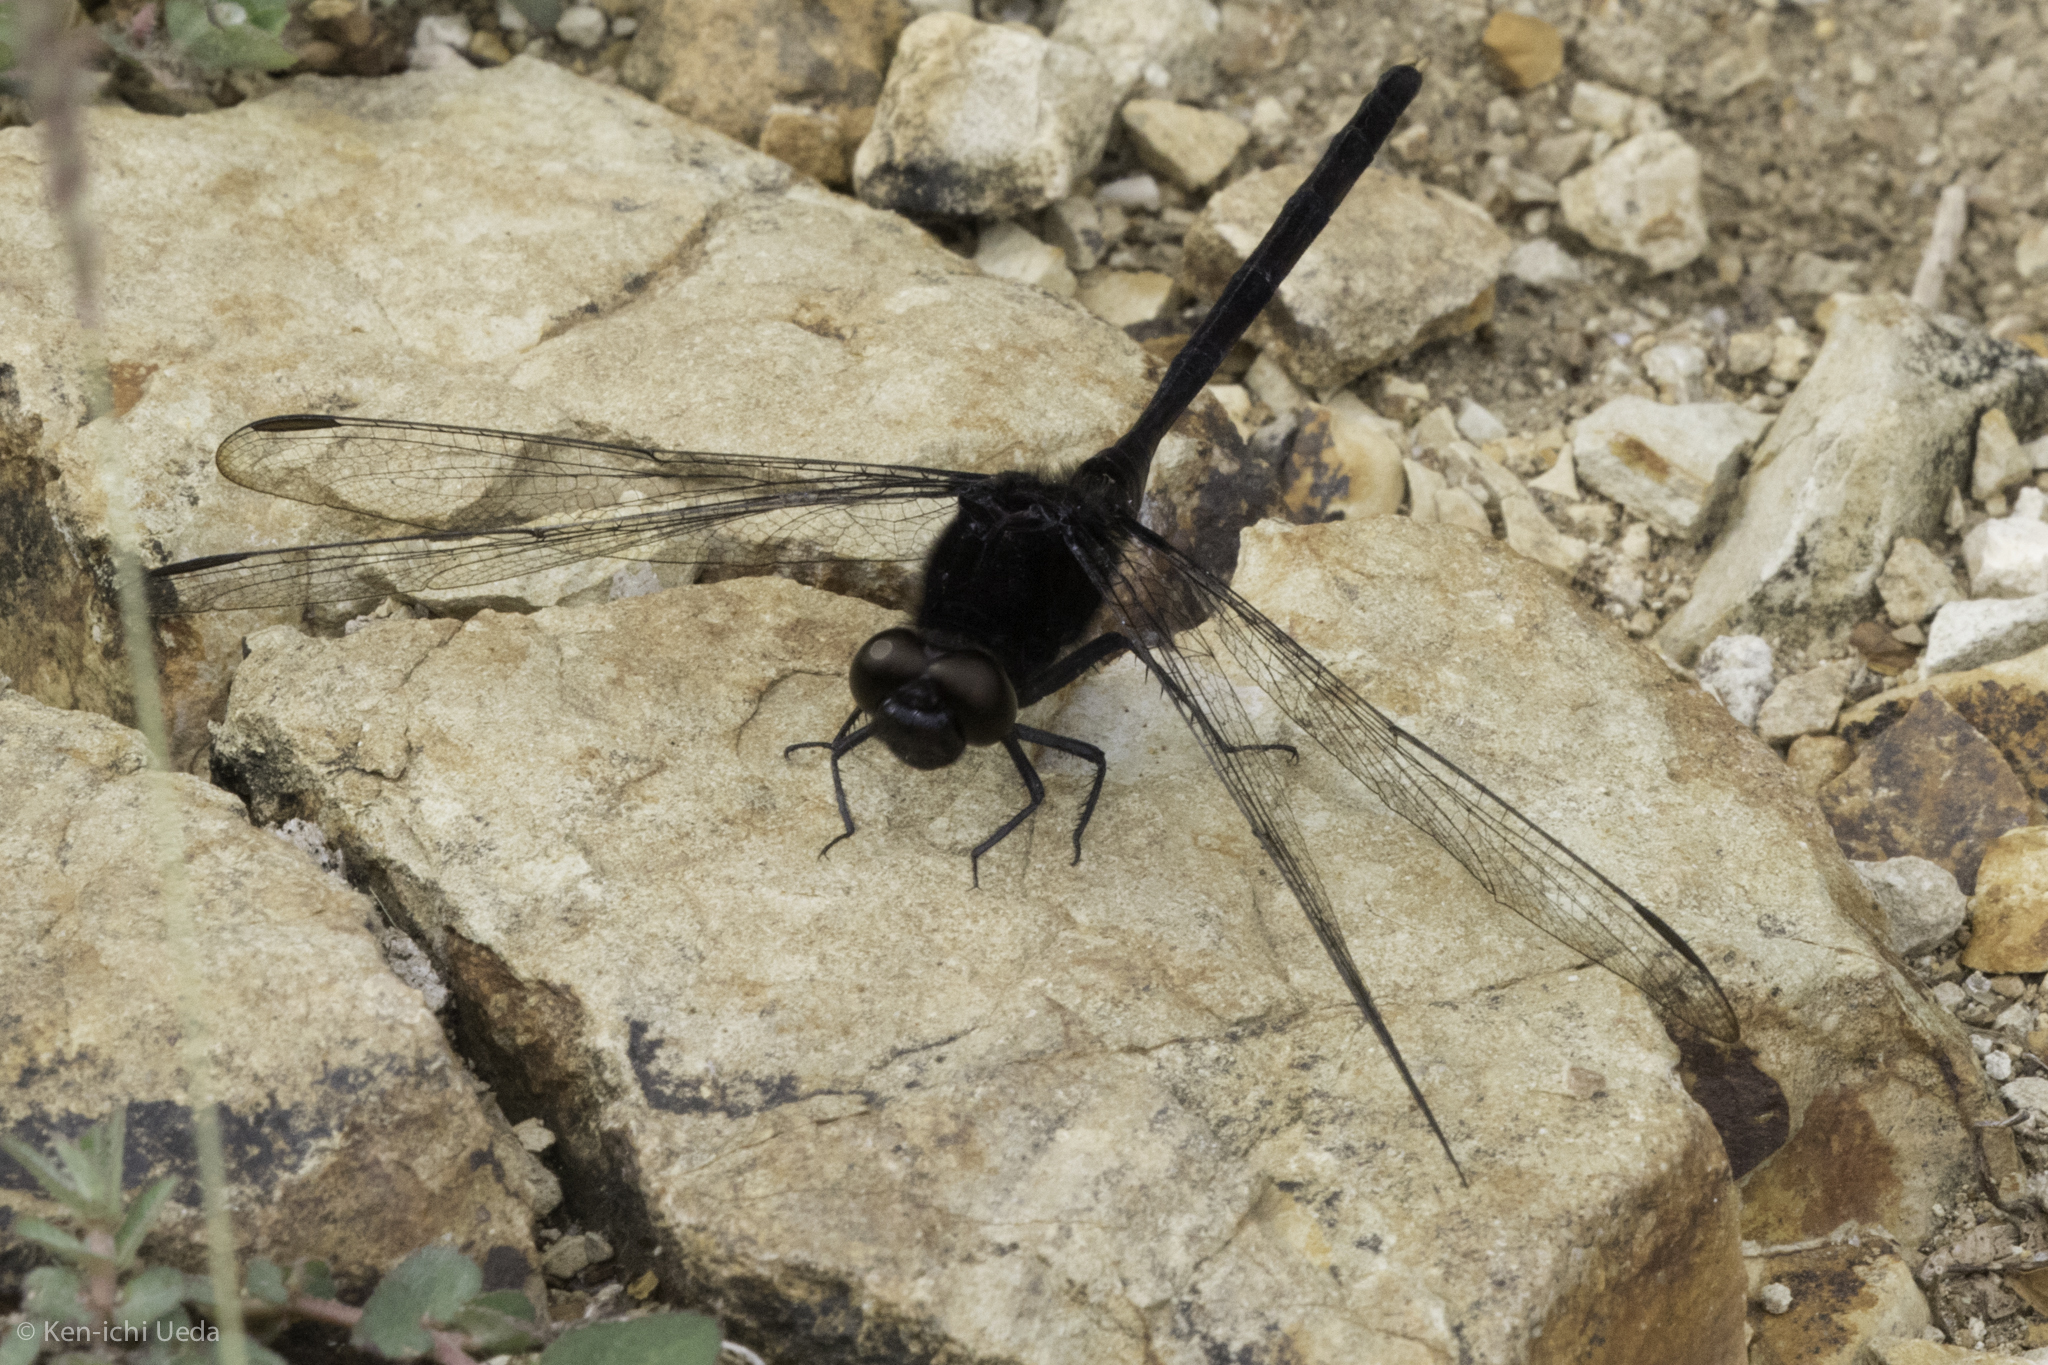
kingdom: Animalia
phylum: Arthropoda
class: Insecta
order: Odonata
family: Libellulidae
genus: Erythemis
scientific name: Erythemis plebeja
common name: Pin-tailed pondhawk
